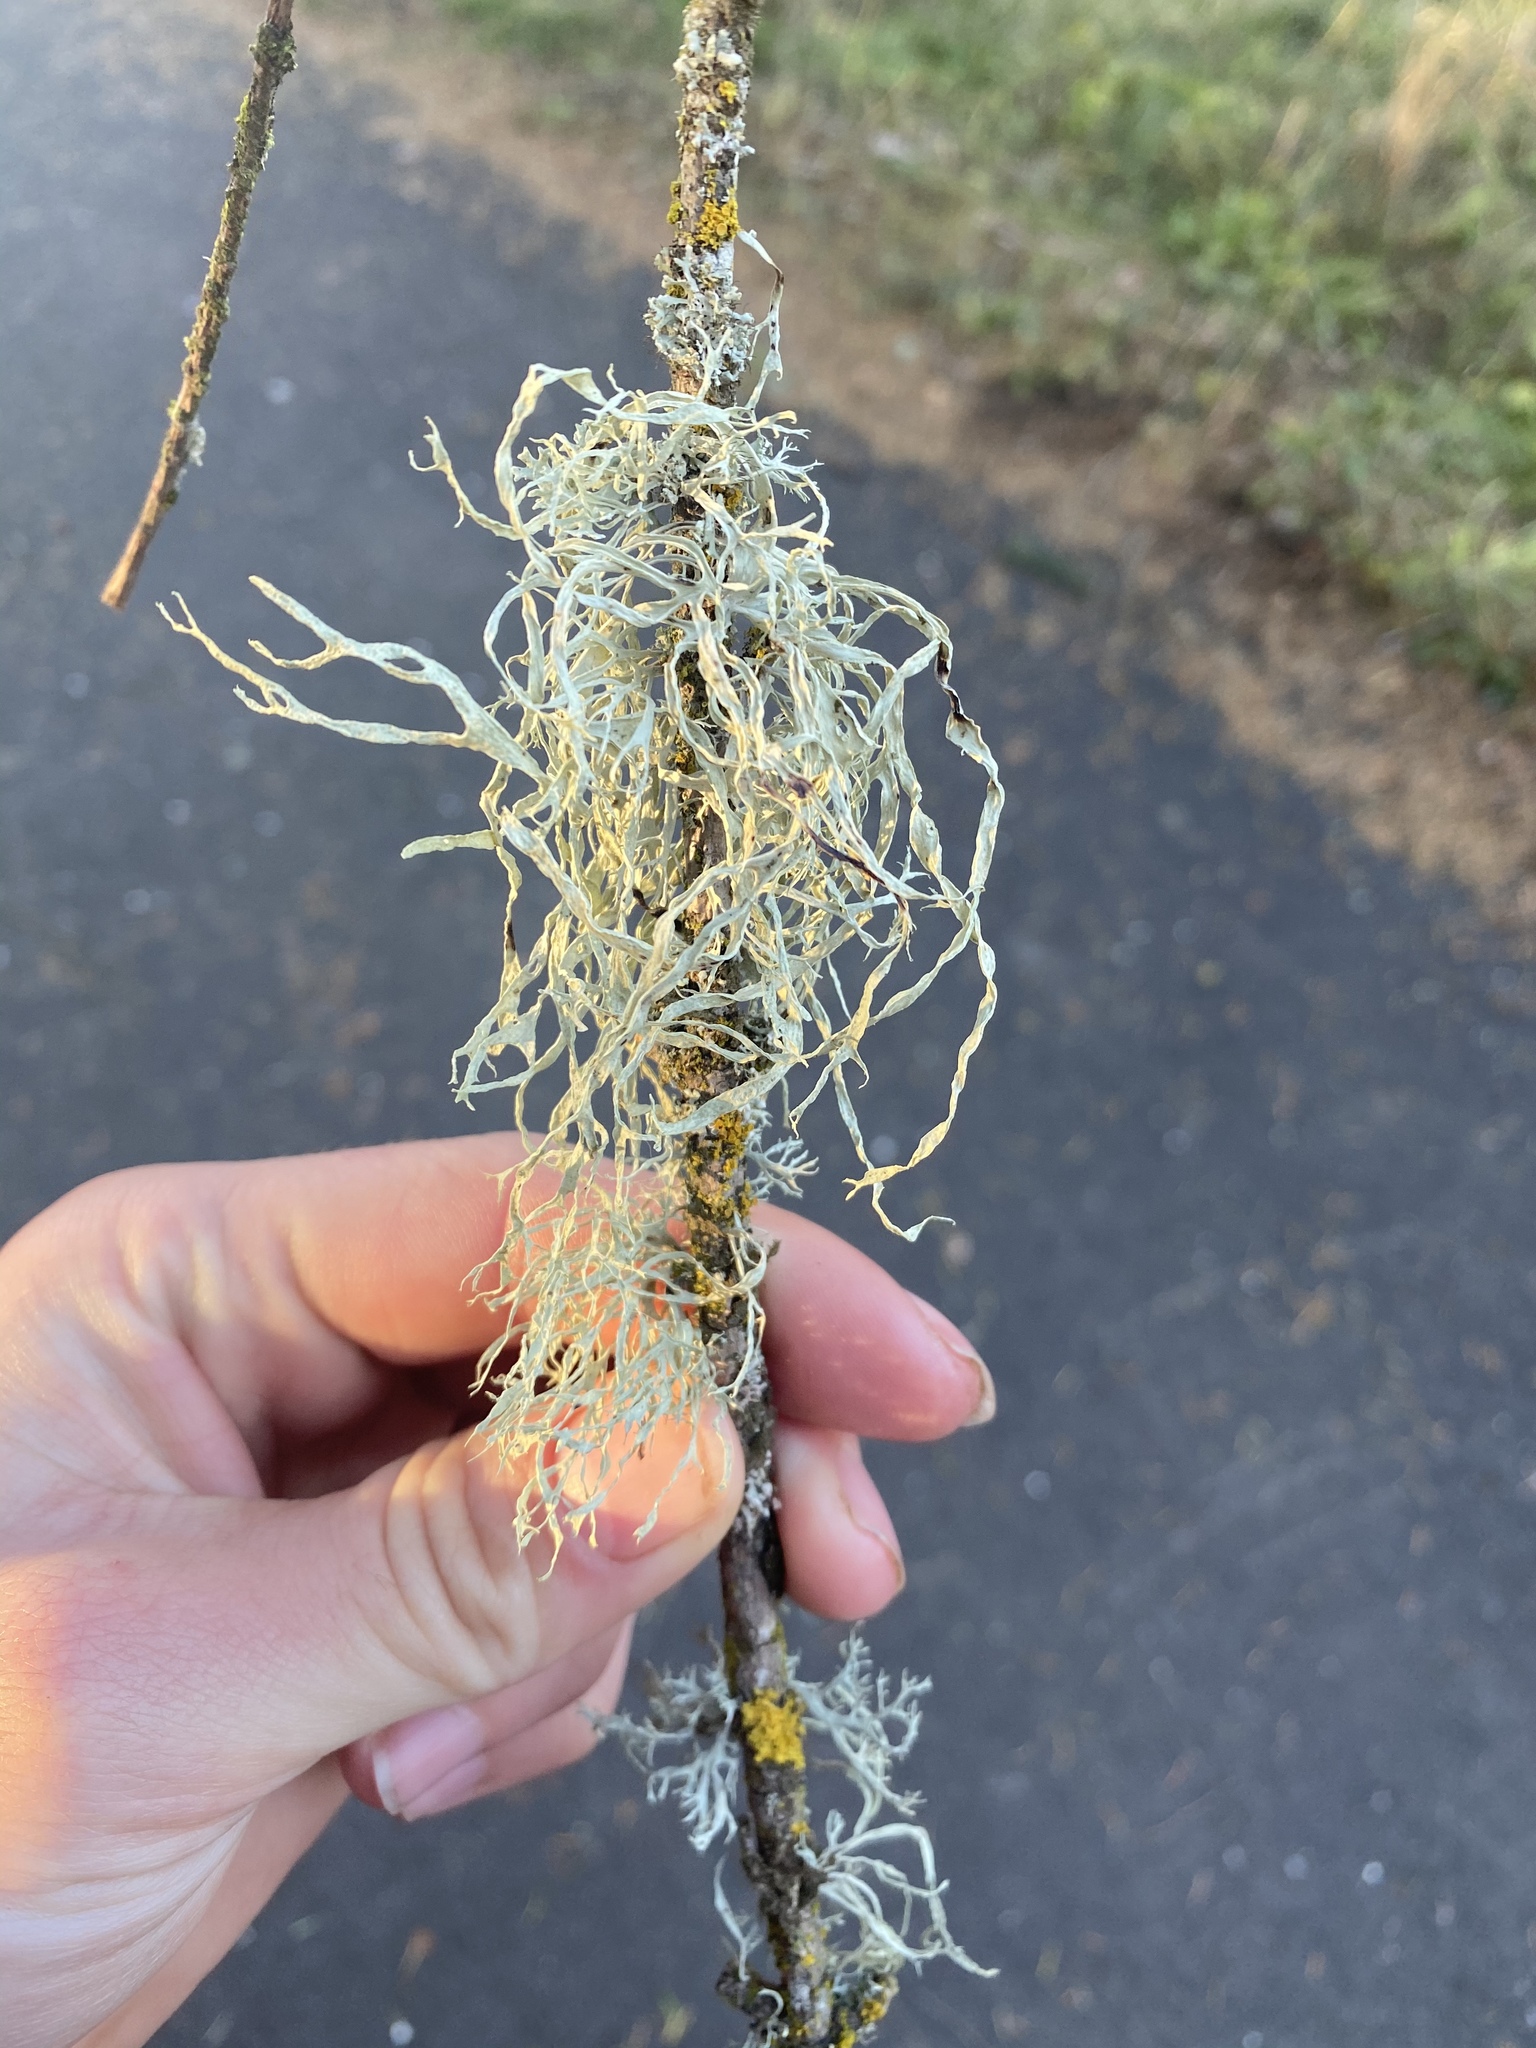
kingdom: Fungi
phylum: Ascomycota
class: Lecanoromycetes
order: Lecanorales
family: Ramalinaceae
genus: Ramalina
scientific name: Ramalina farinacea
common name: Farinose cartilage lichen
